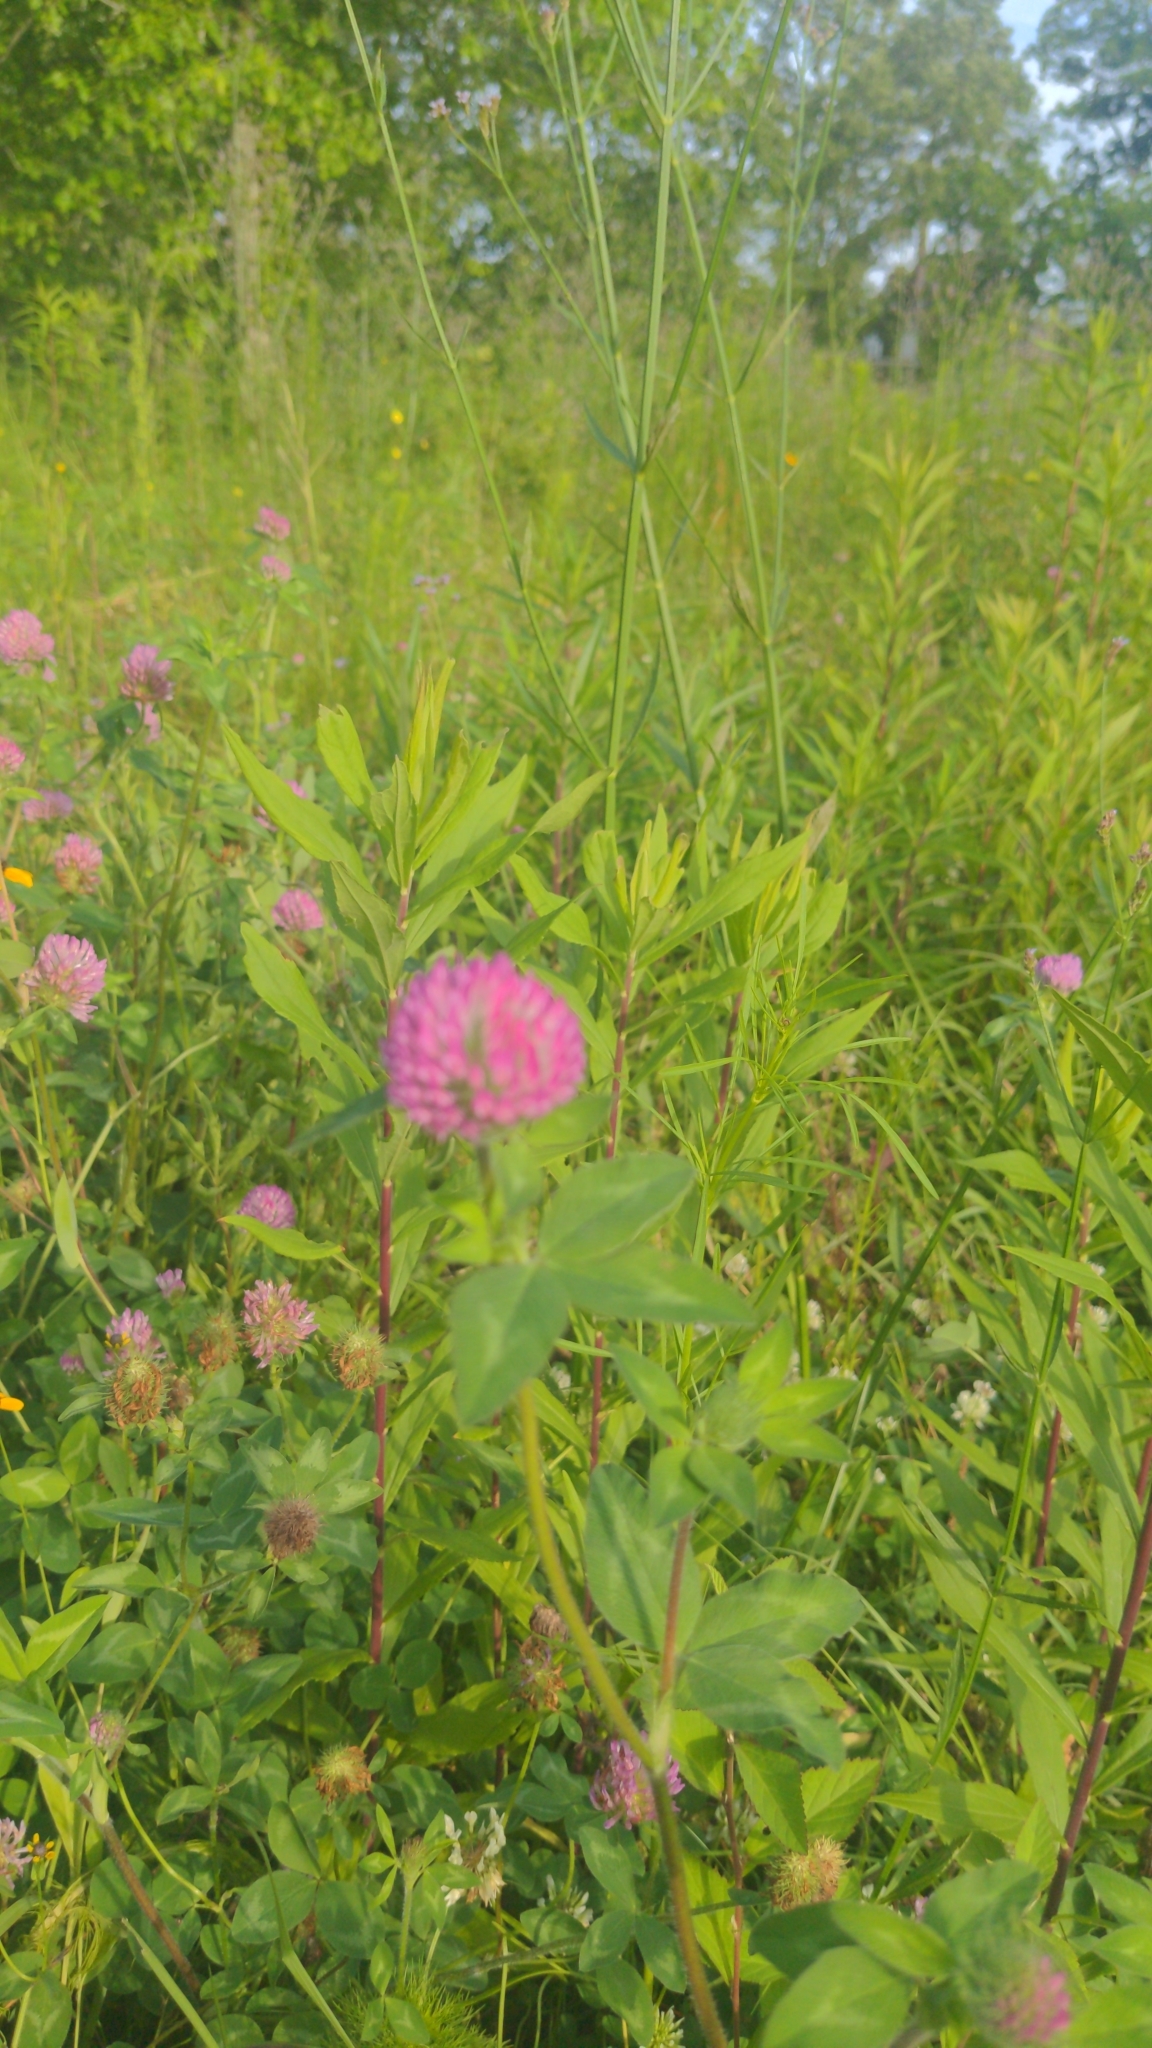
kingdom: Plantae
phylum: Tracheophyta
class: Magnoliopsida
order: Fabales
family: Fabaceae
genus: Trifolium
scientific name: Trifolium pratense
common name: Red clover
